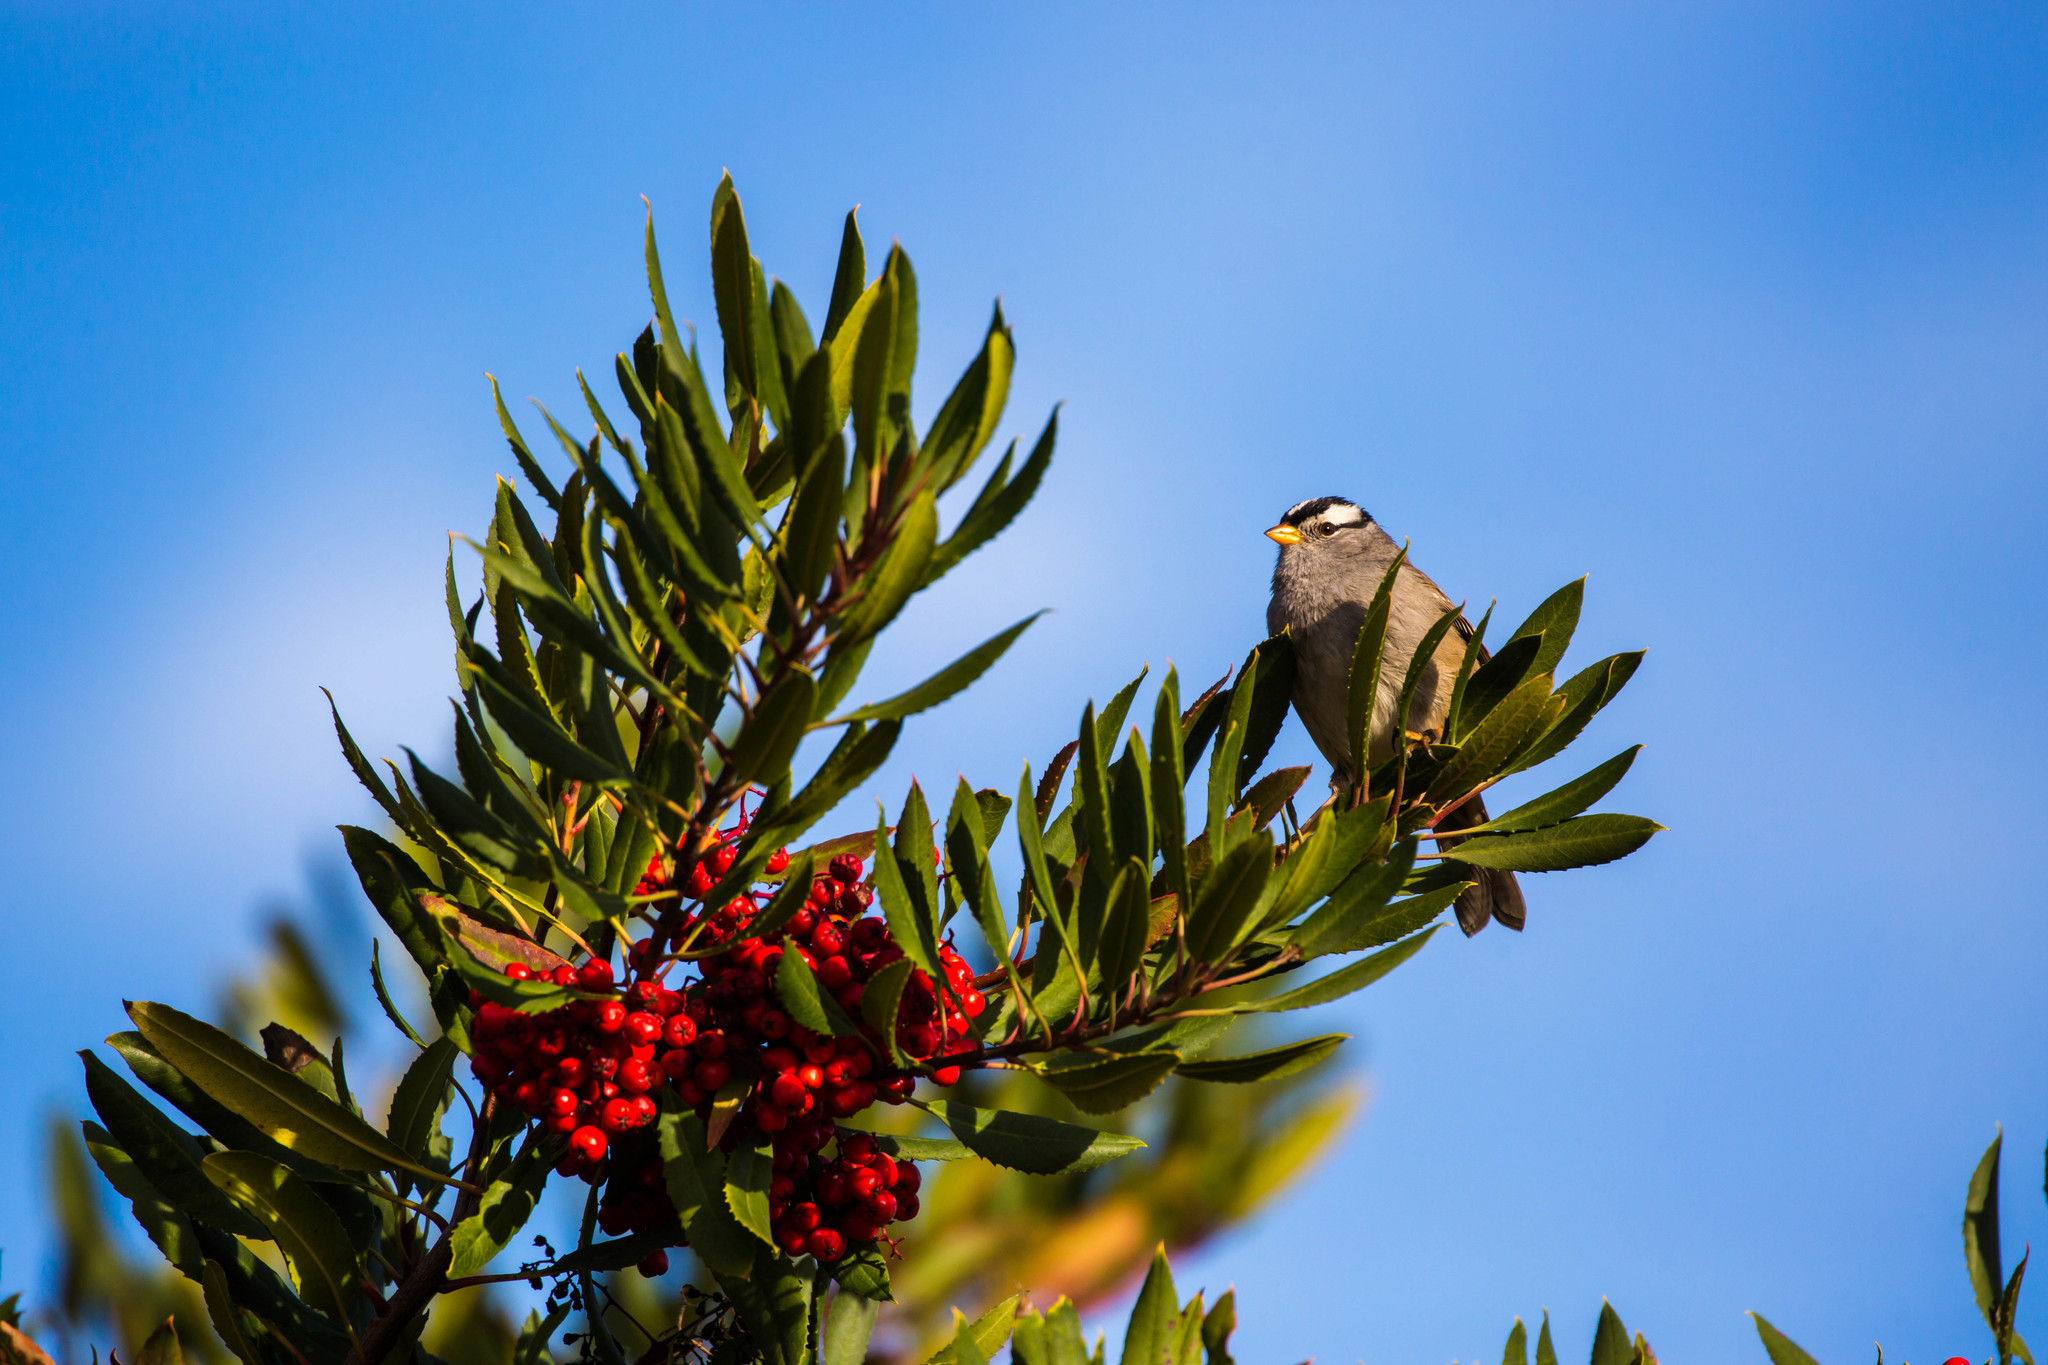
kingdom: Animalia
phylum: Chordata
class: Aves
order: Passeriformes
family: Passerellidae
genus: Zonotrichia
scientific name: Zonotrichia leucophrys
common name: White-crowned sparrow
